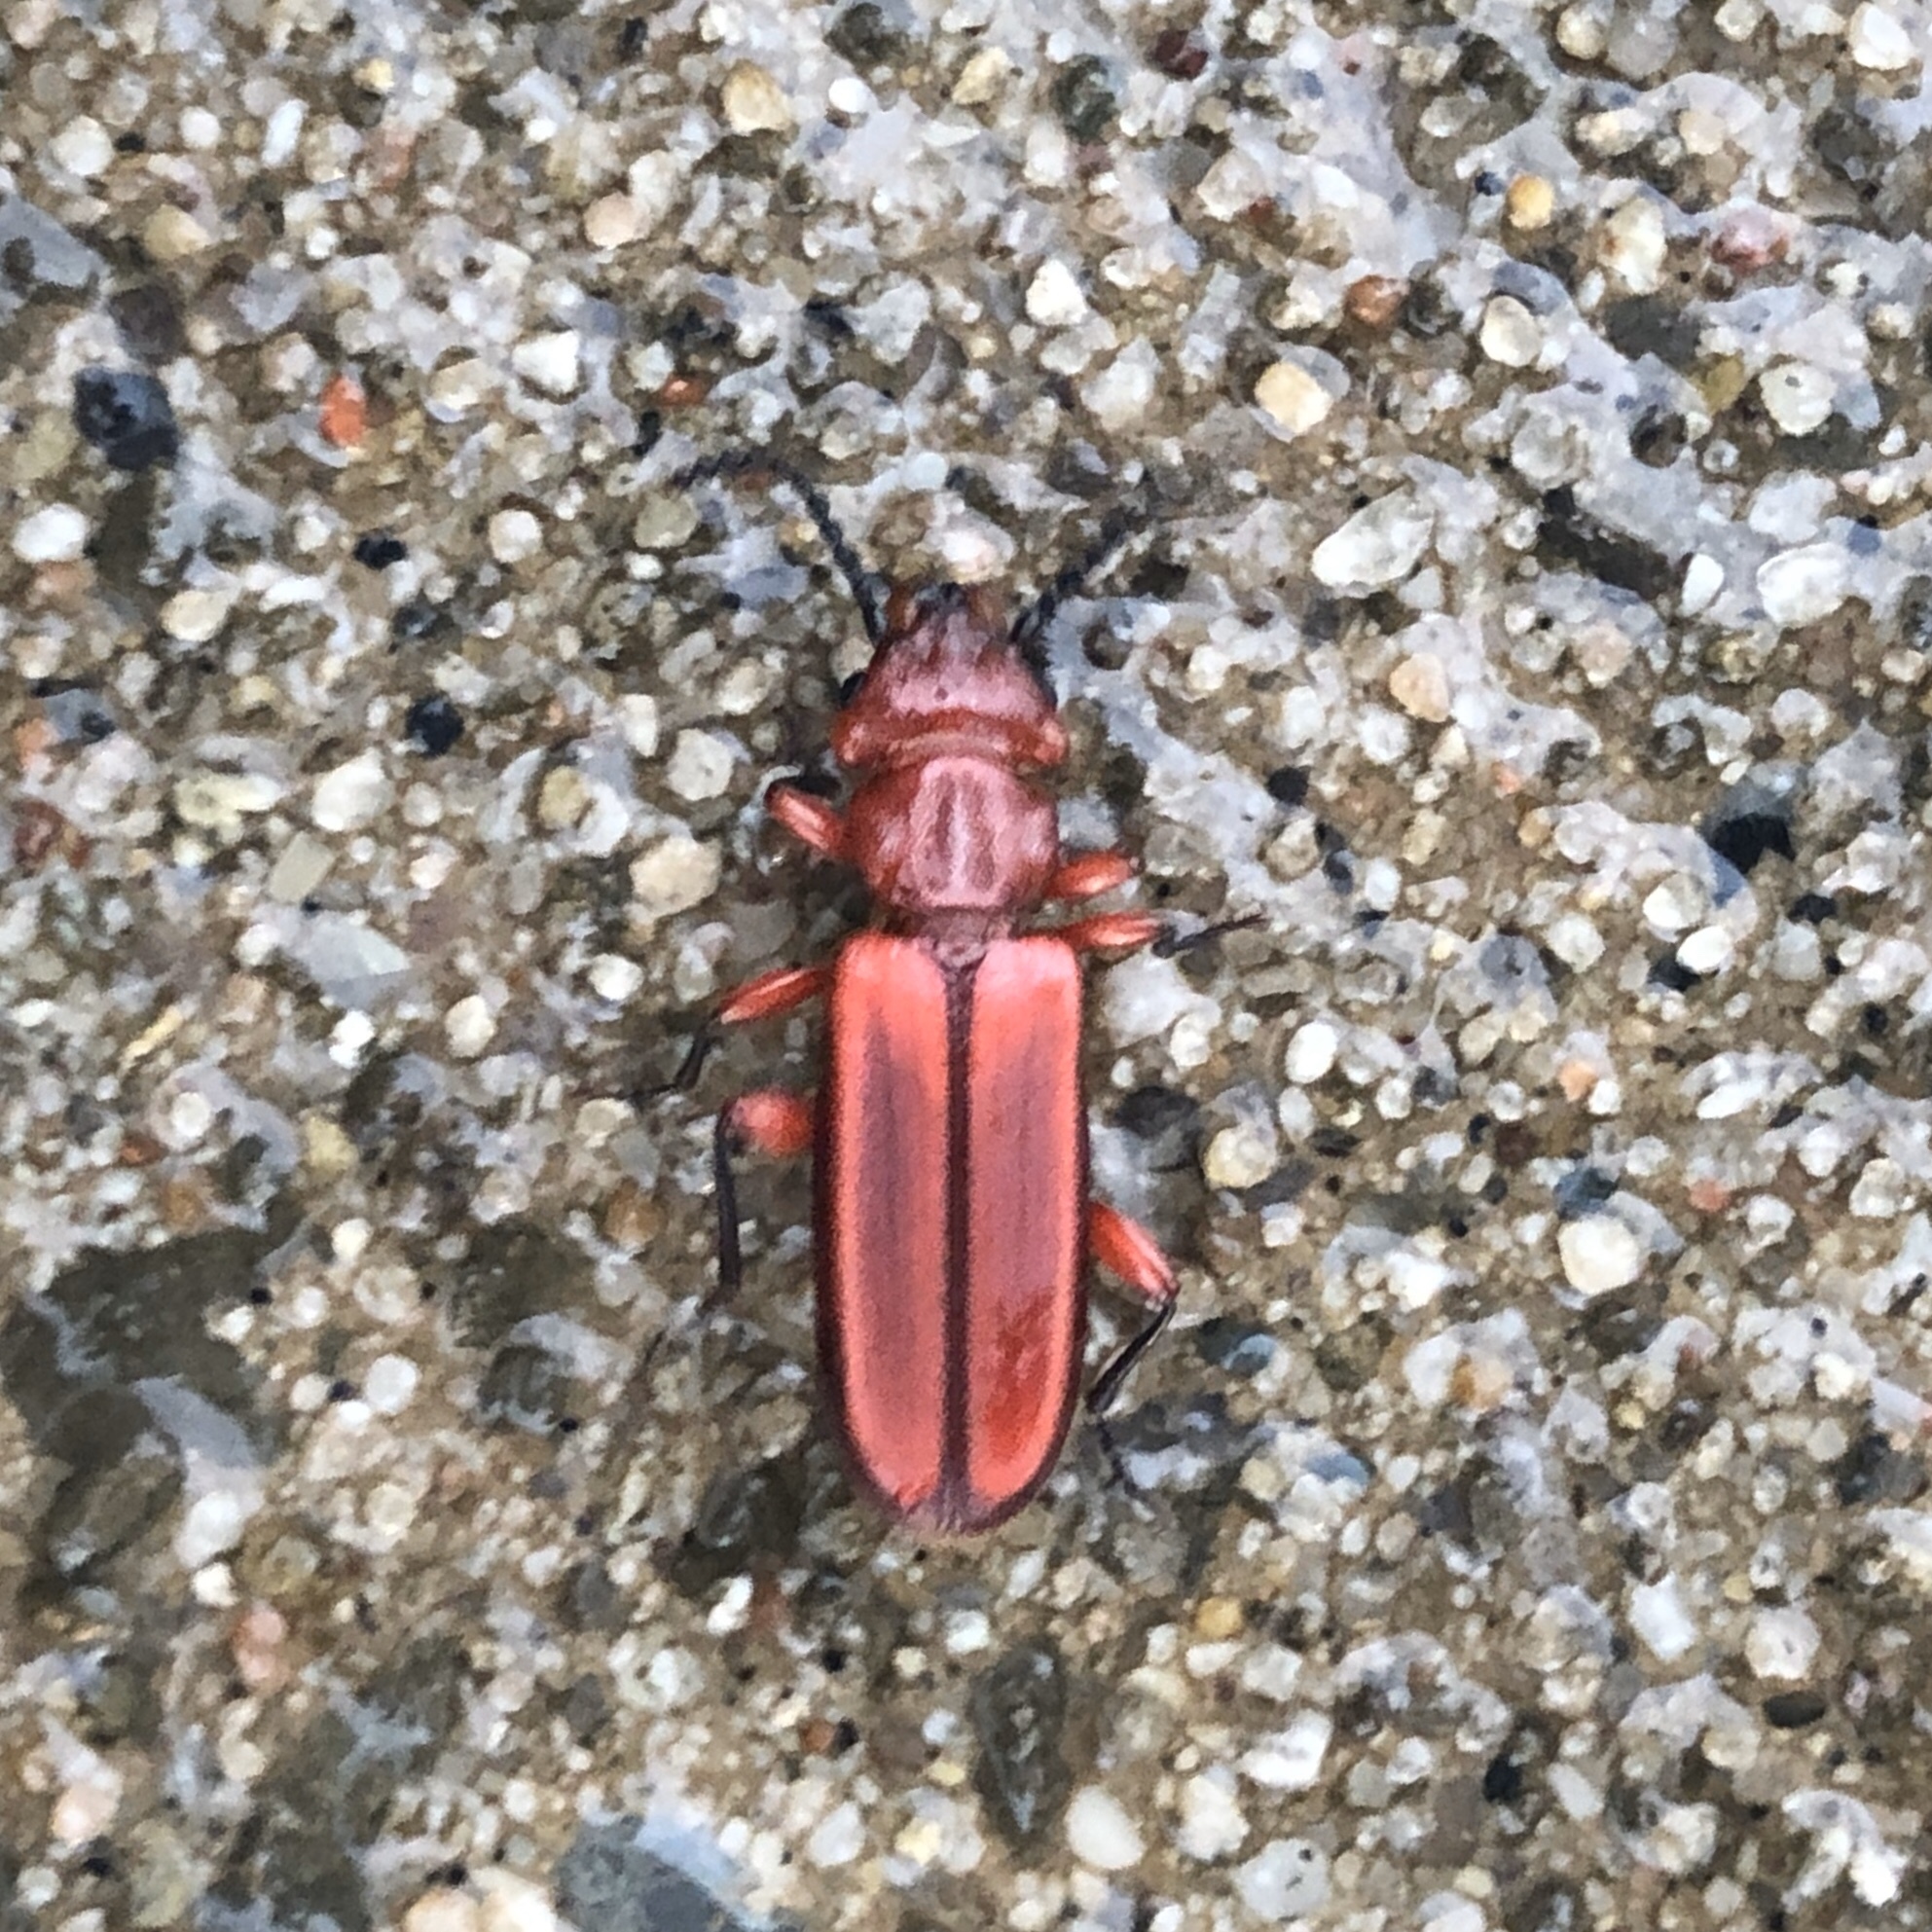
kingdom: Animalia
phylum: Arthropoda
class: Insecta
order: Coleoptera
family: Cucujidae
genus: Cucujus
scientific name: Cucujus clavipes
